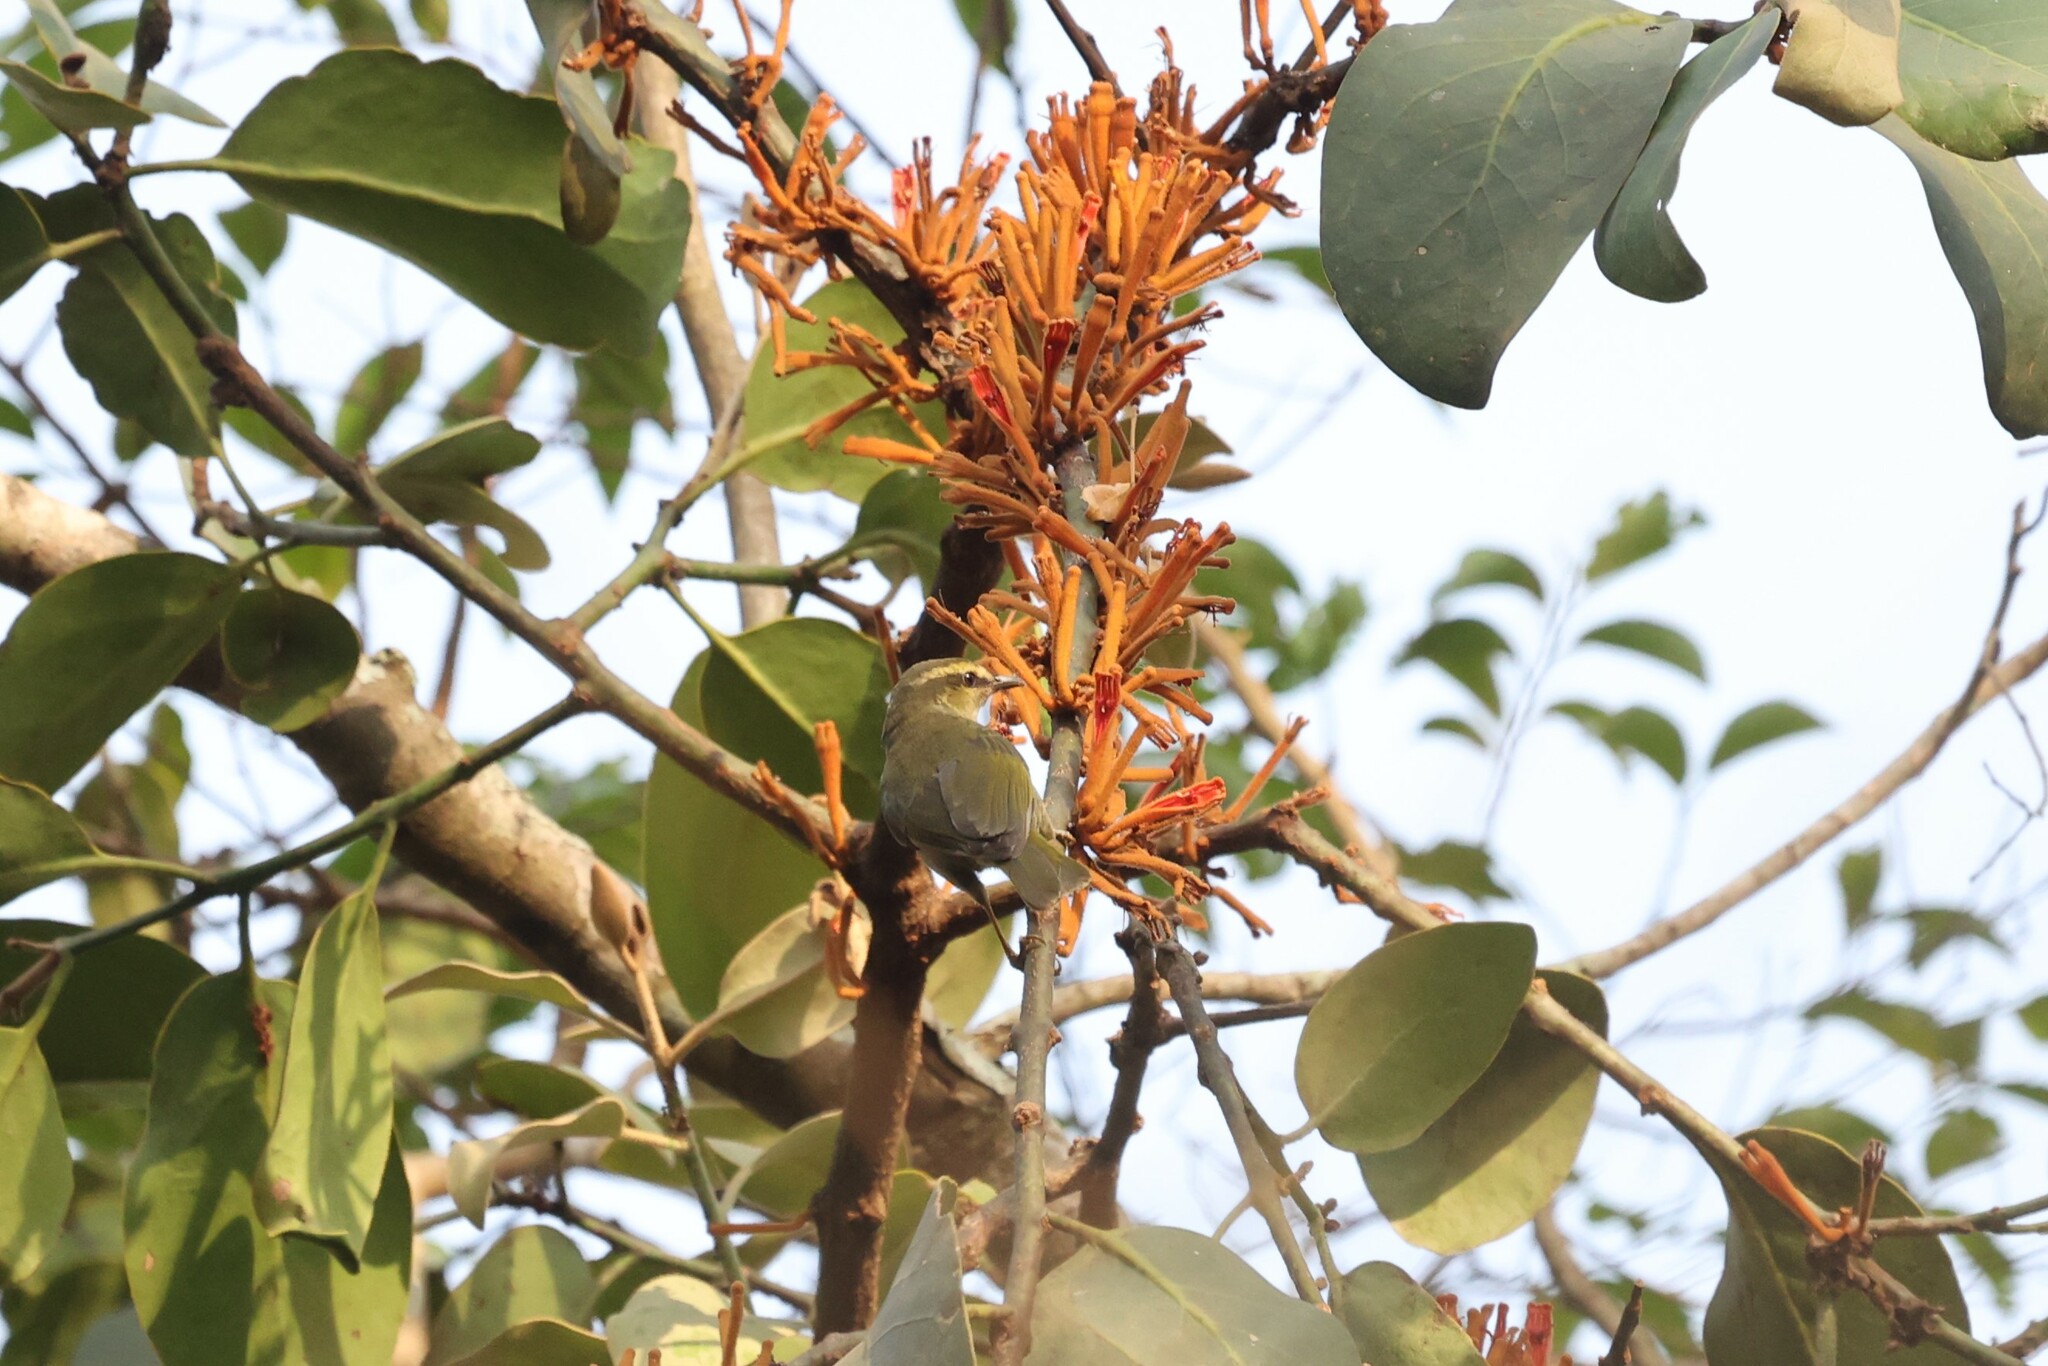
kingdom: Animalia
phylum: Chordata
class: Aves
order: Passeriformes
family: Cettiidae
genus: Hylia
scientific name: Hylia prasina
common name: Green hylia
